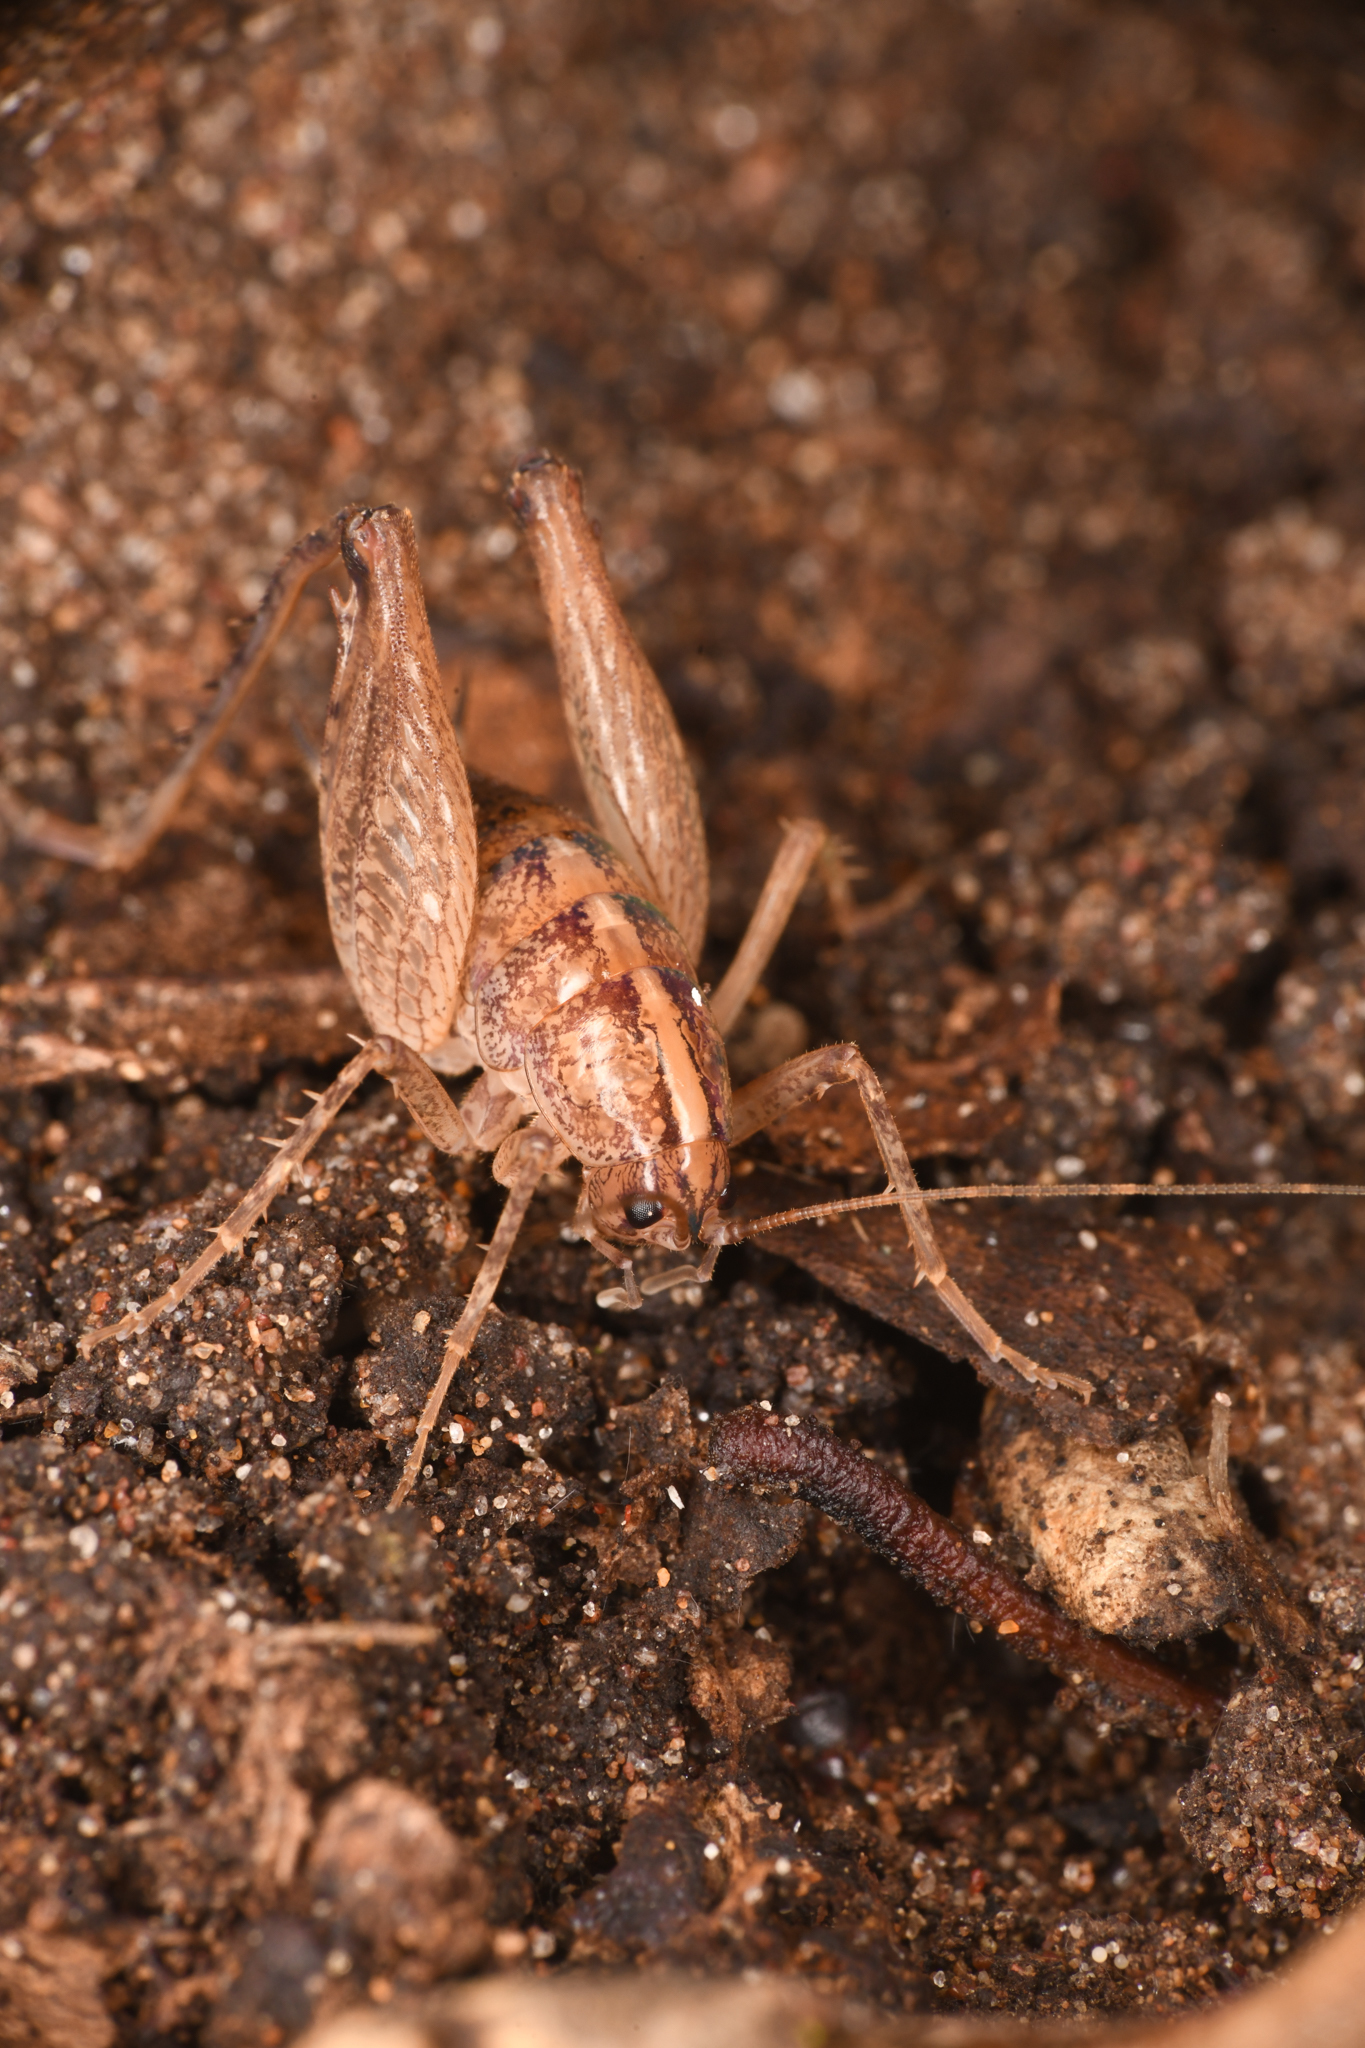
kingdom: Animalia
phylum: Arthropoda
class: Insecta
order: Orthoptera
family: Rhaphidophoridae
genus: Pristoceuthophilus
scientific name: Pristoceuthophilus
